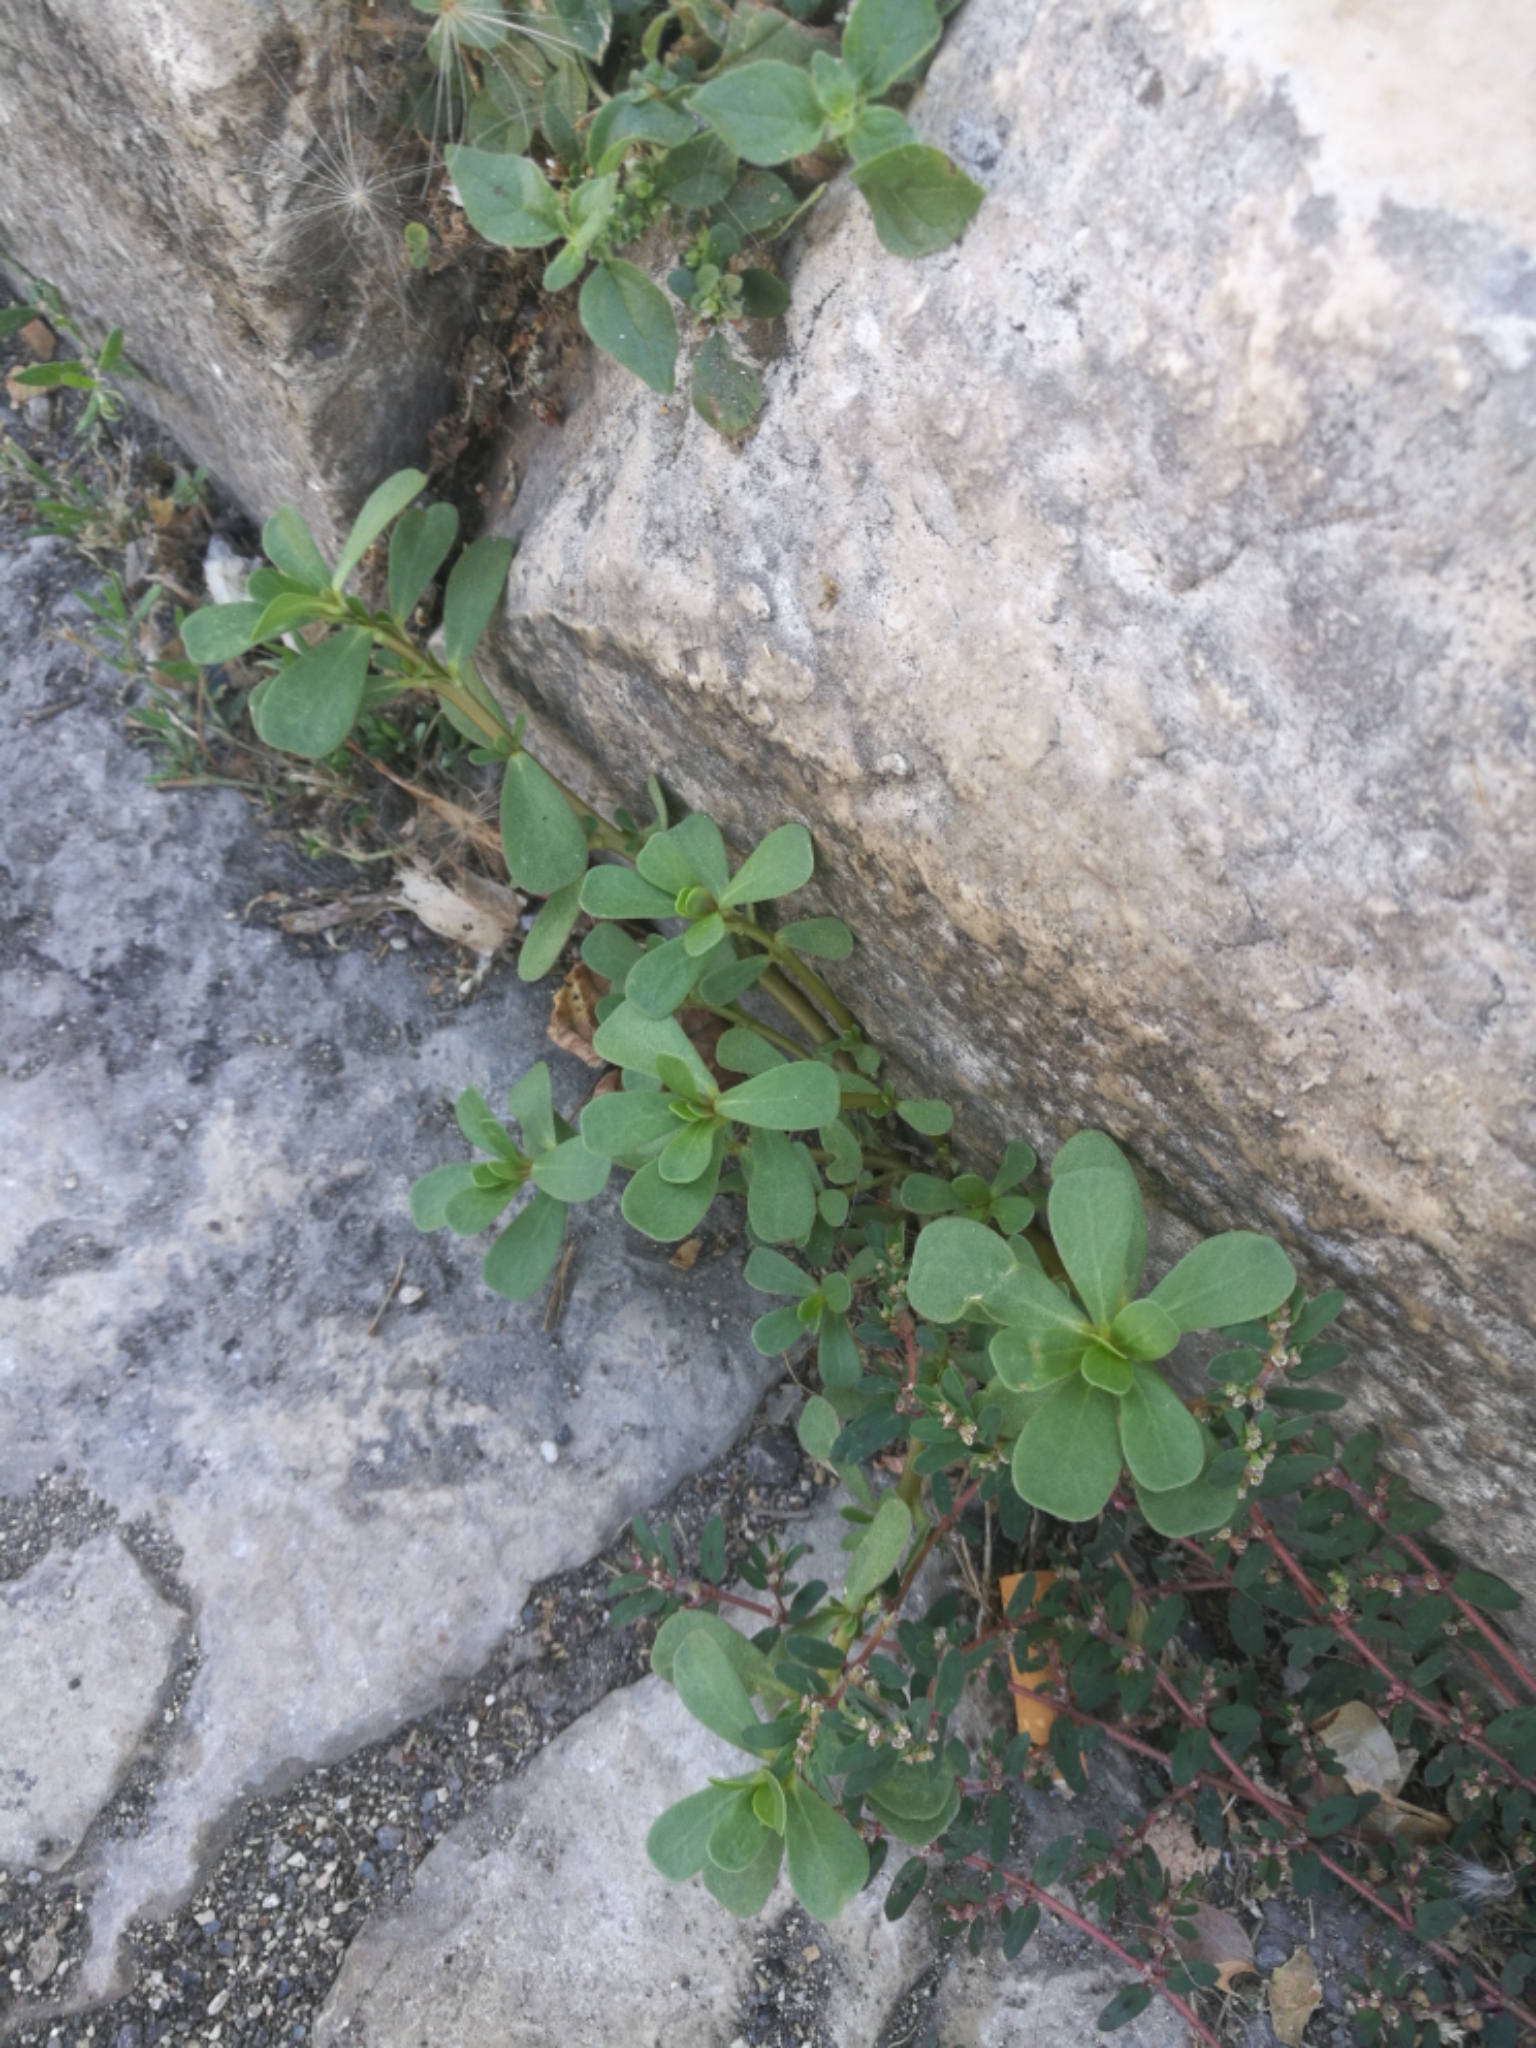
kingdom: Plantae
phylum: Tracheophyta
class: Magnoliopsida
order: Caryophyllales
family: Portulacaceae
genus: Portulaca
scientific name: Portulaca oleracea
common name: Common purslane
